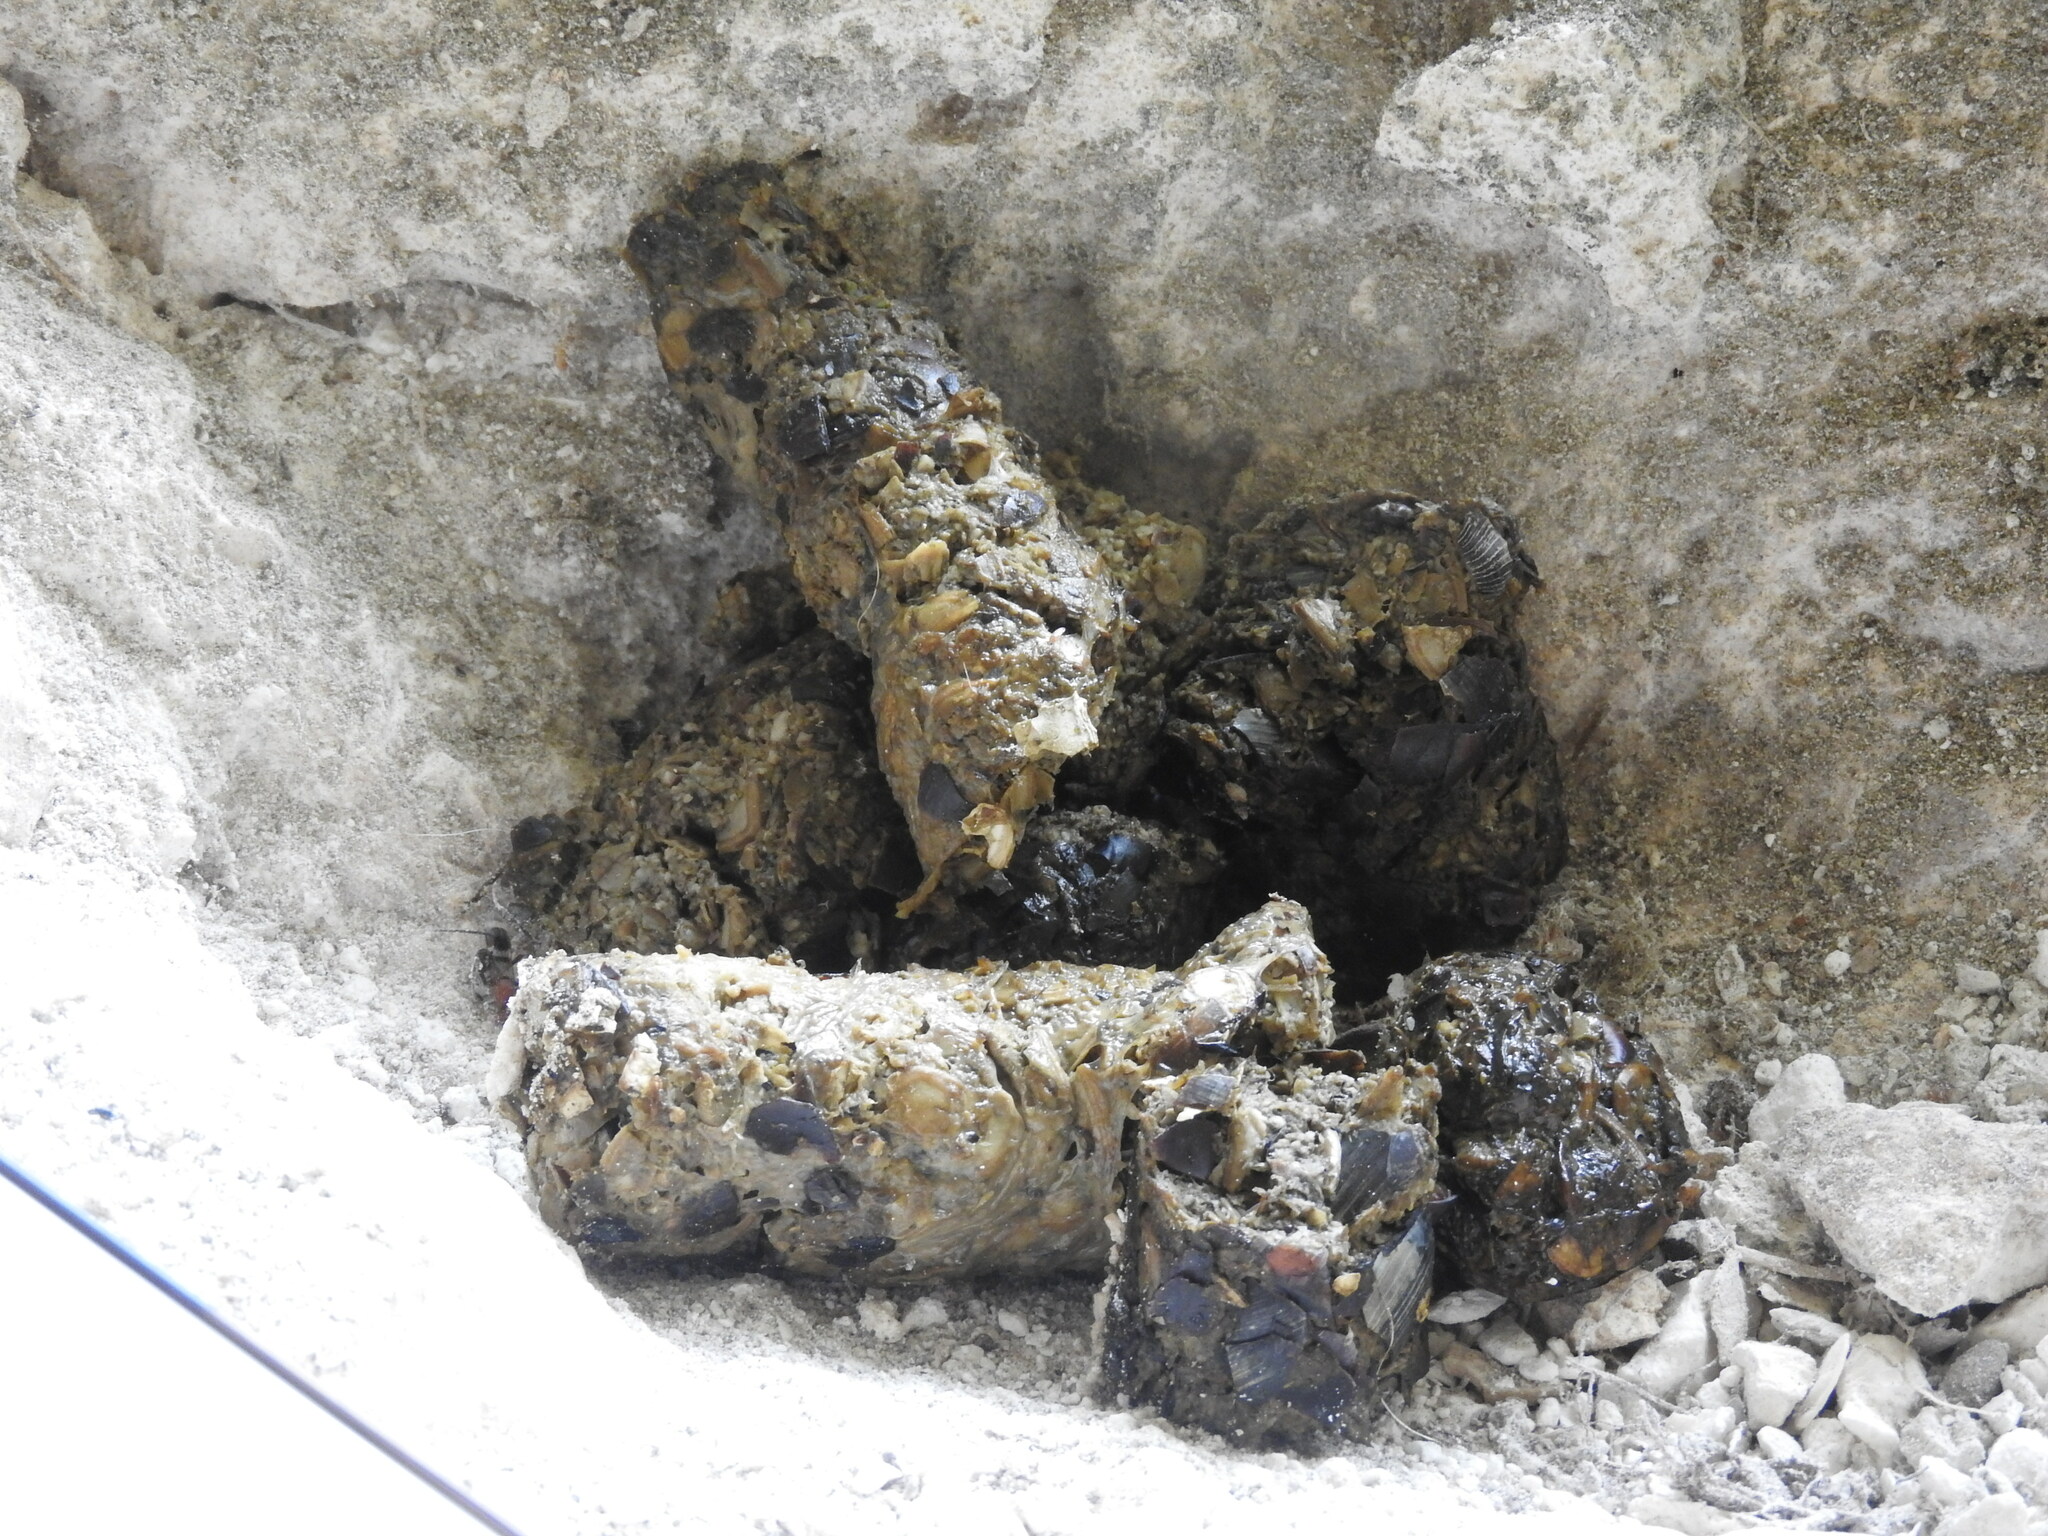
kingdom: Animalia
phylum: Chordata
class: Mammalia
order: Carnivora
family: Procyonidae
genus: Nasua
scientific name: Nasua narica
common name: White-nosed coati
